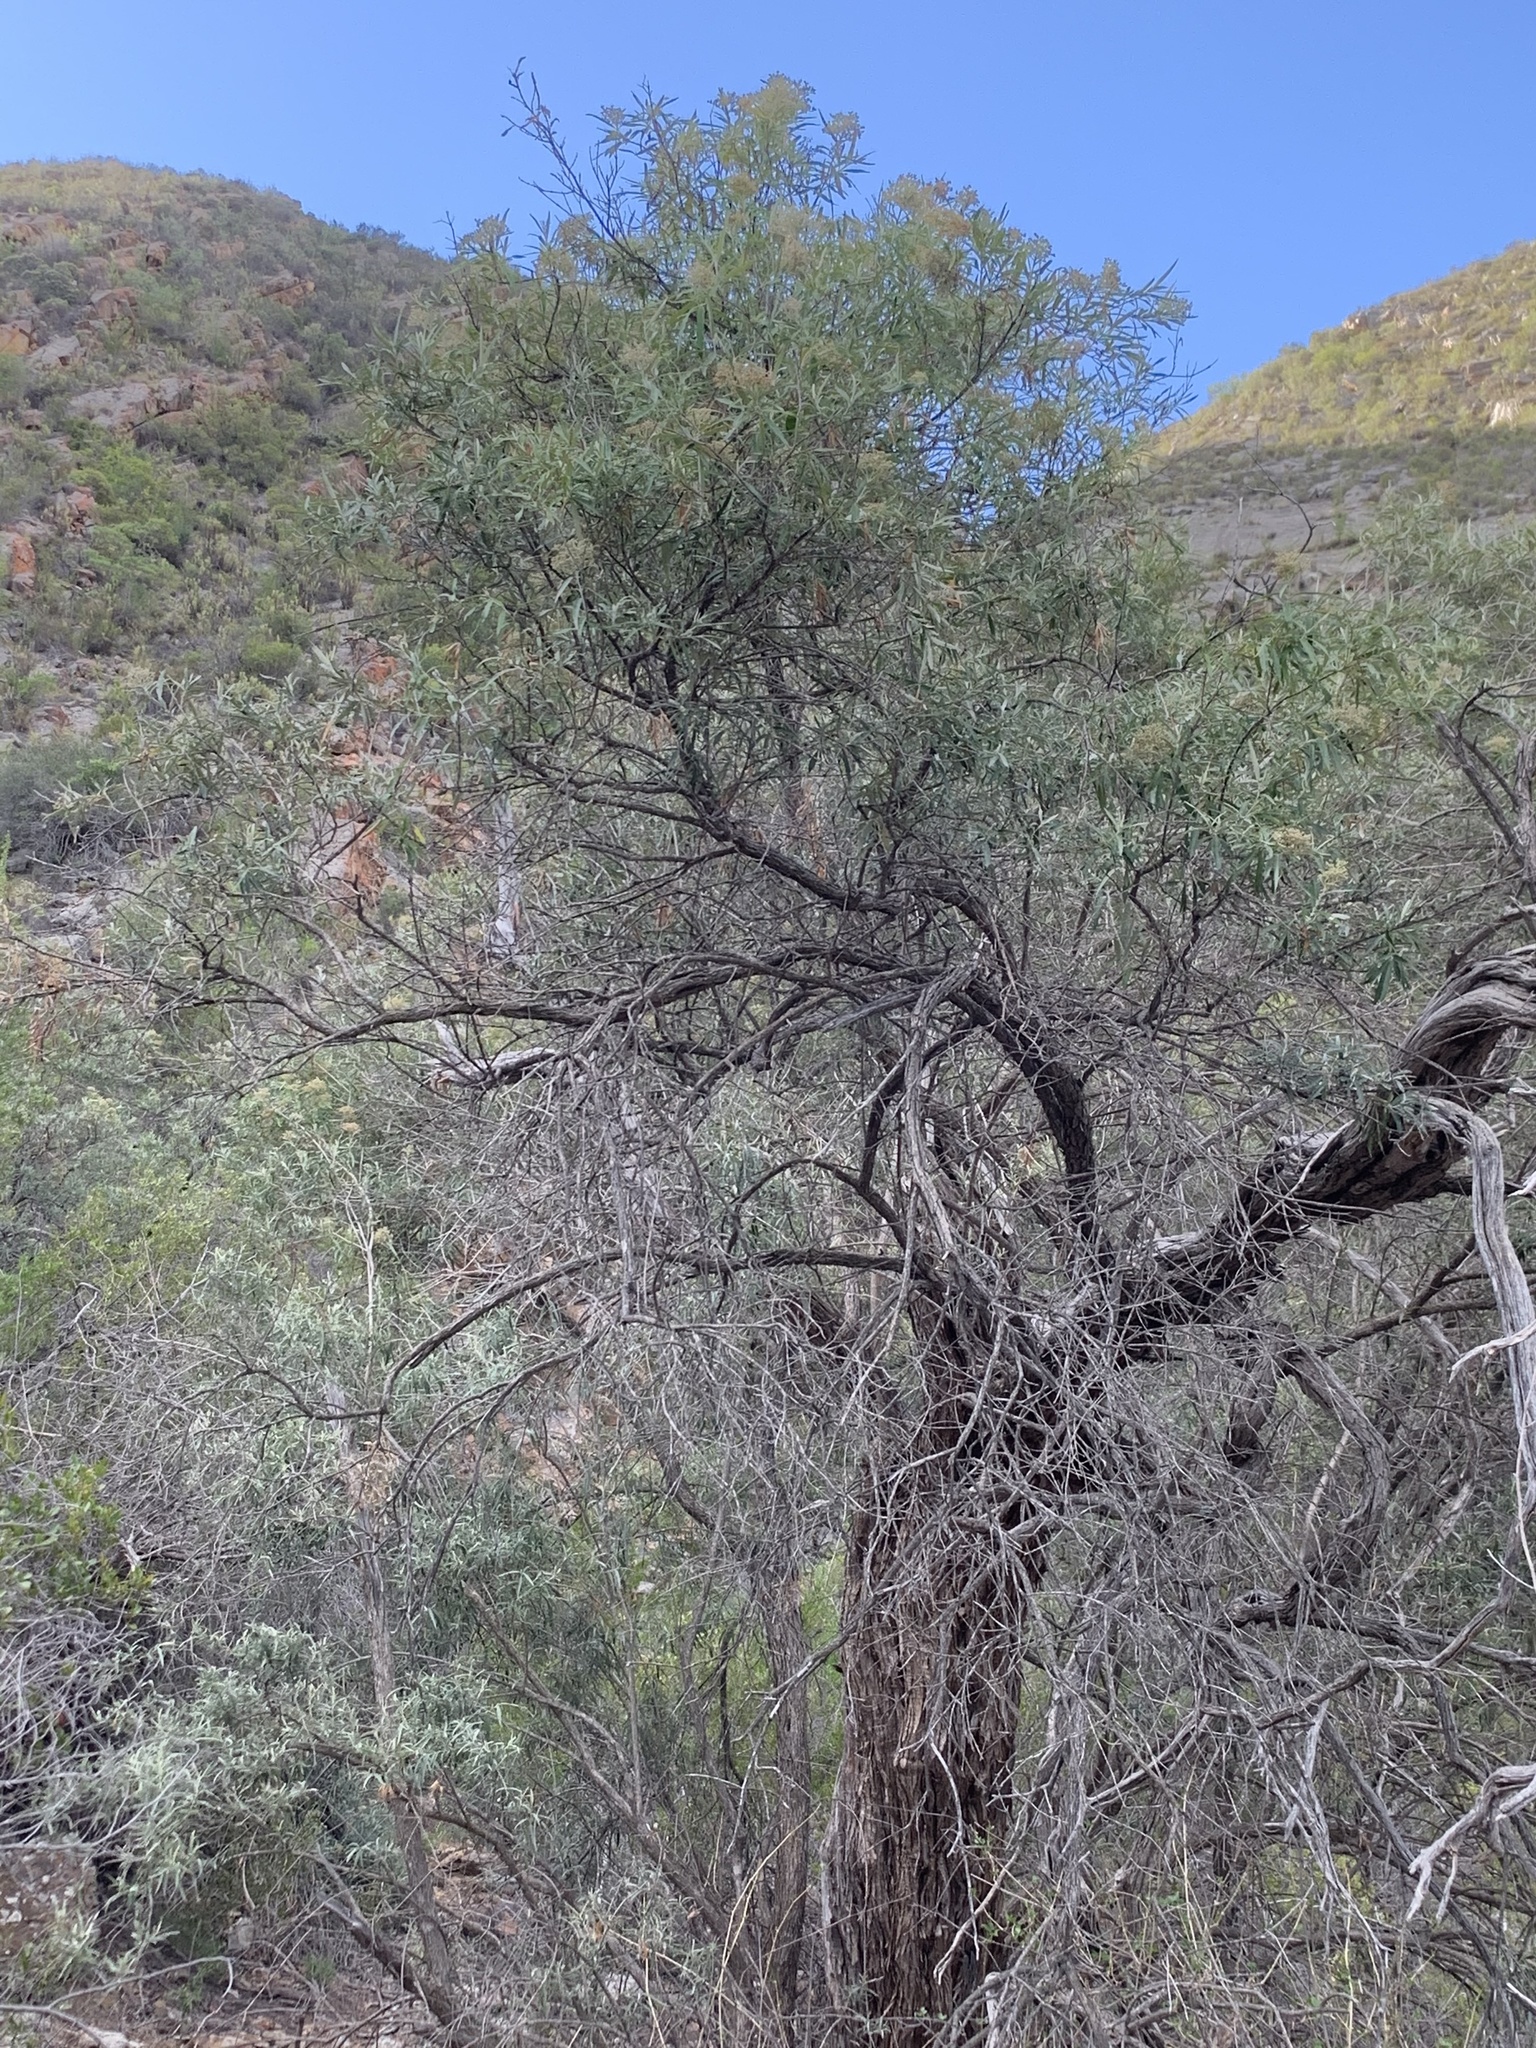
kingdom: Plantae
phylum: Tracheophyta
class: Magnoliopsida
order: Lamiales
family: Scrophulariaceae
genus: Buddleja
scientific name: Buddleja saligna
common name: False olive
